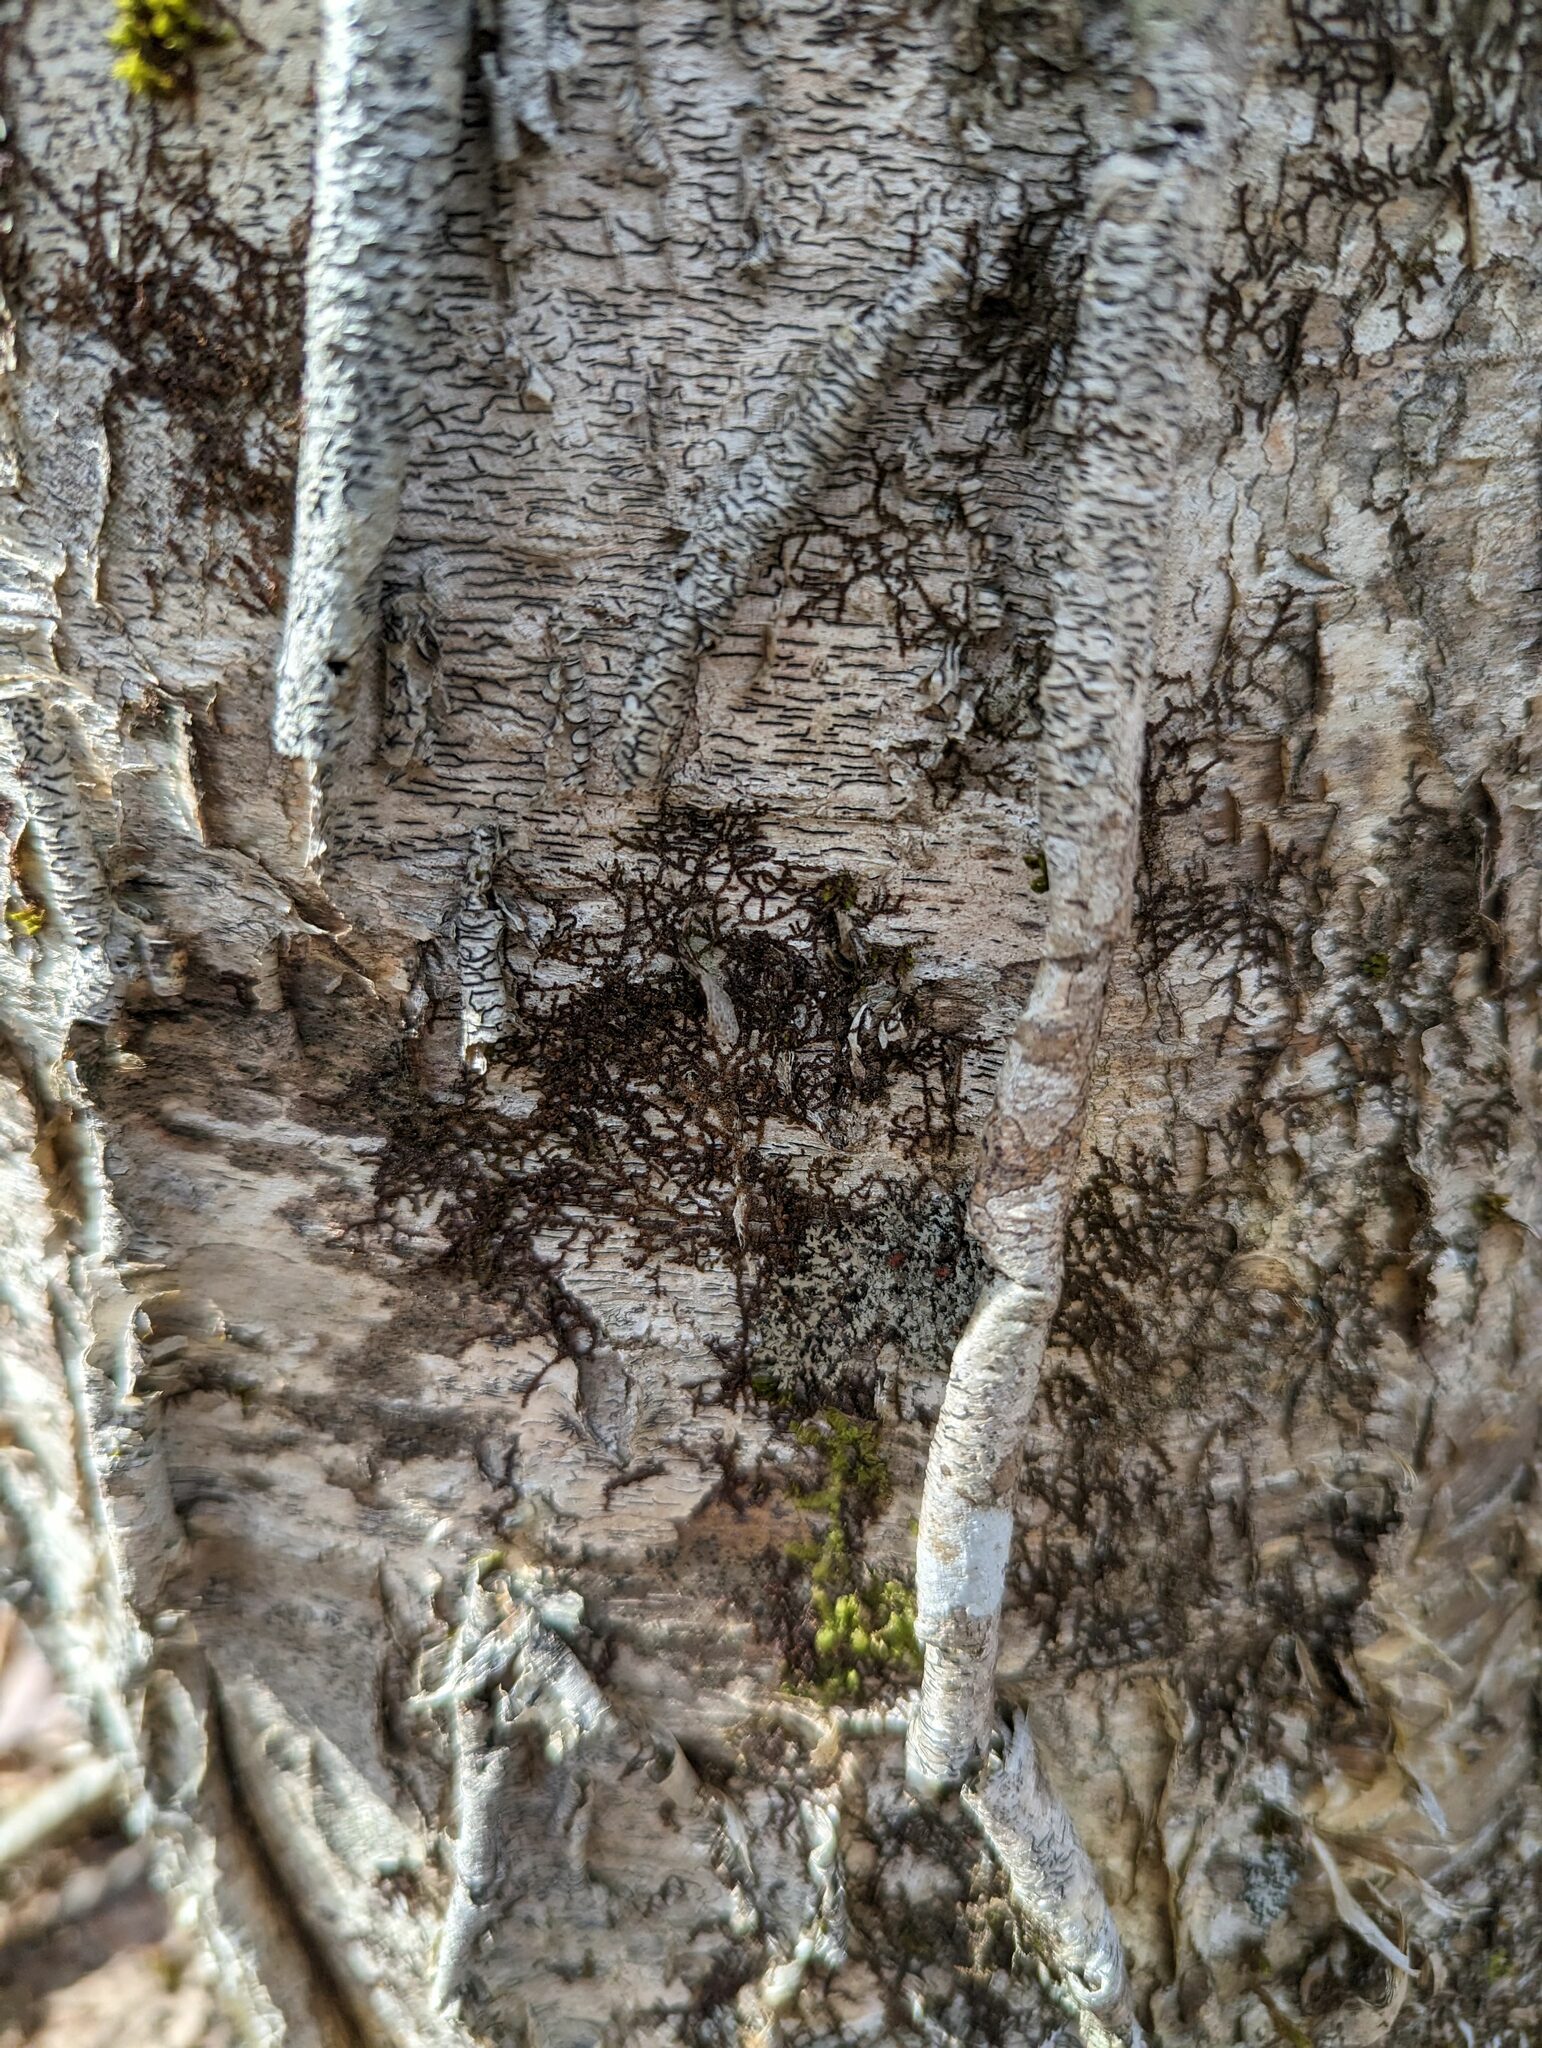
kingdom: Plantae
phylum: Marchantiophyta
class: Jungermanniopsida
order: Porellales
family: Frullaniaceae
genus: Frullania
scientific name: Frullania eboracensis
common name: New york scalewort
